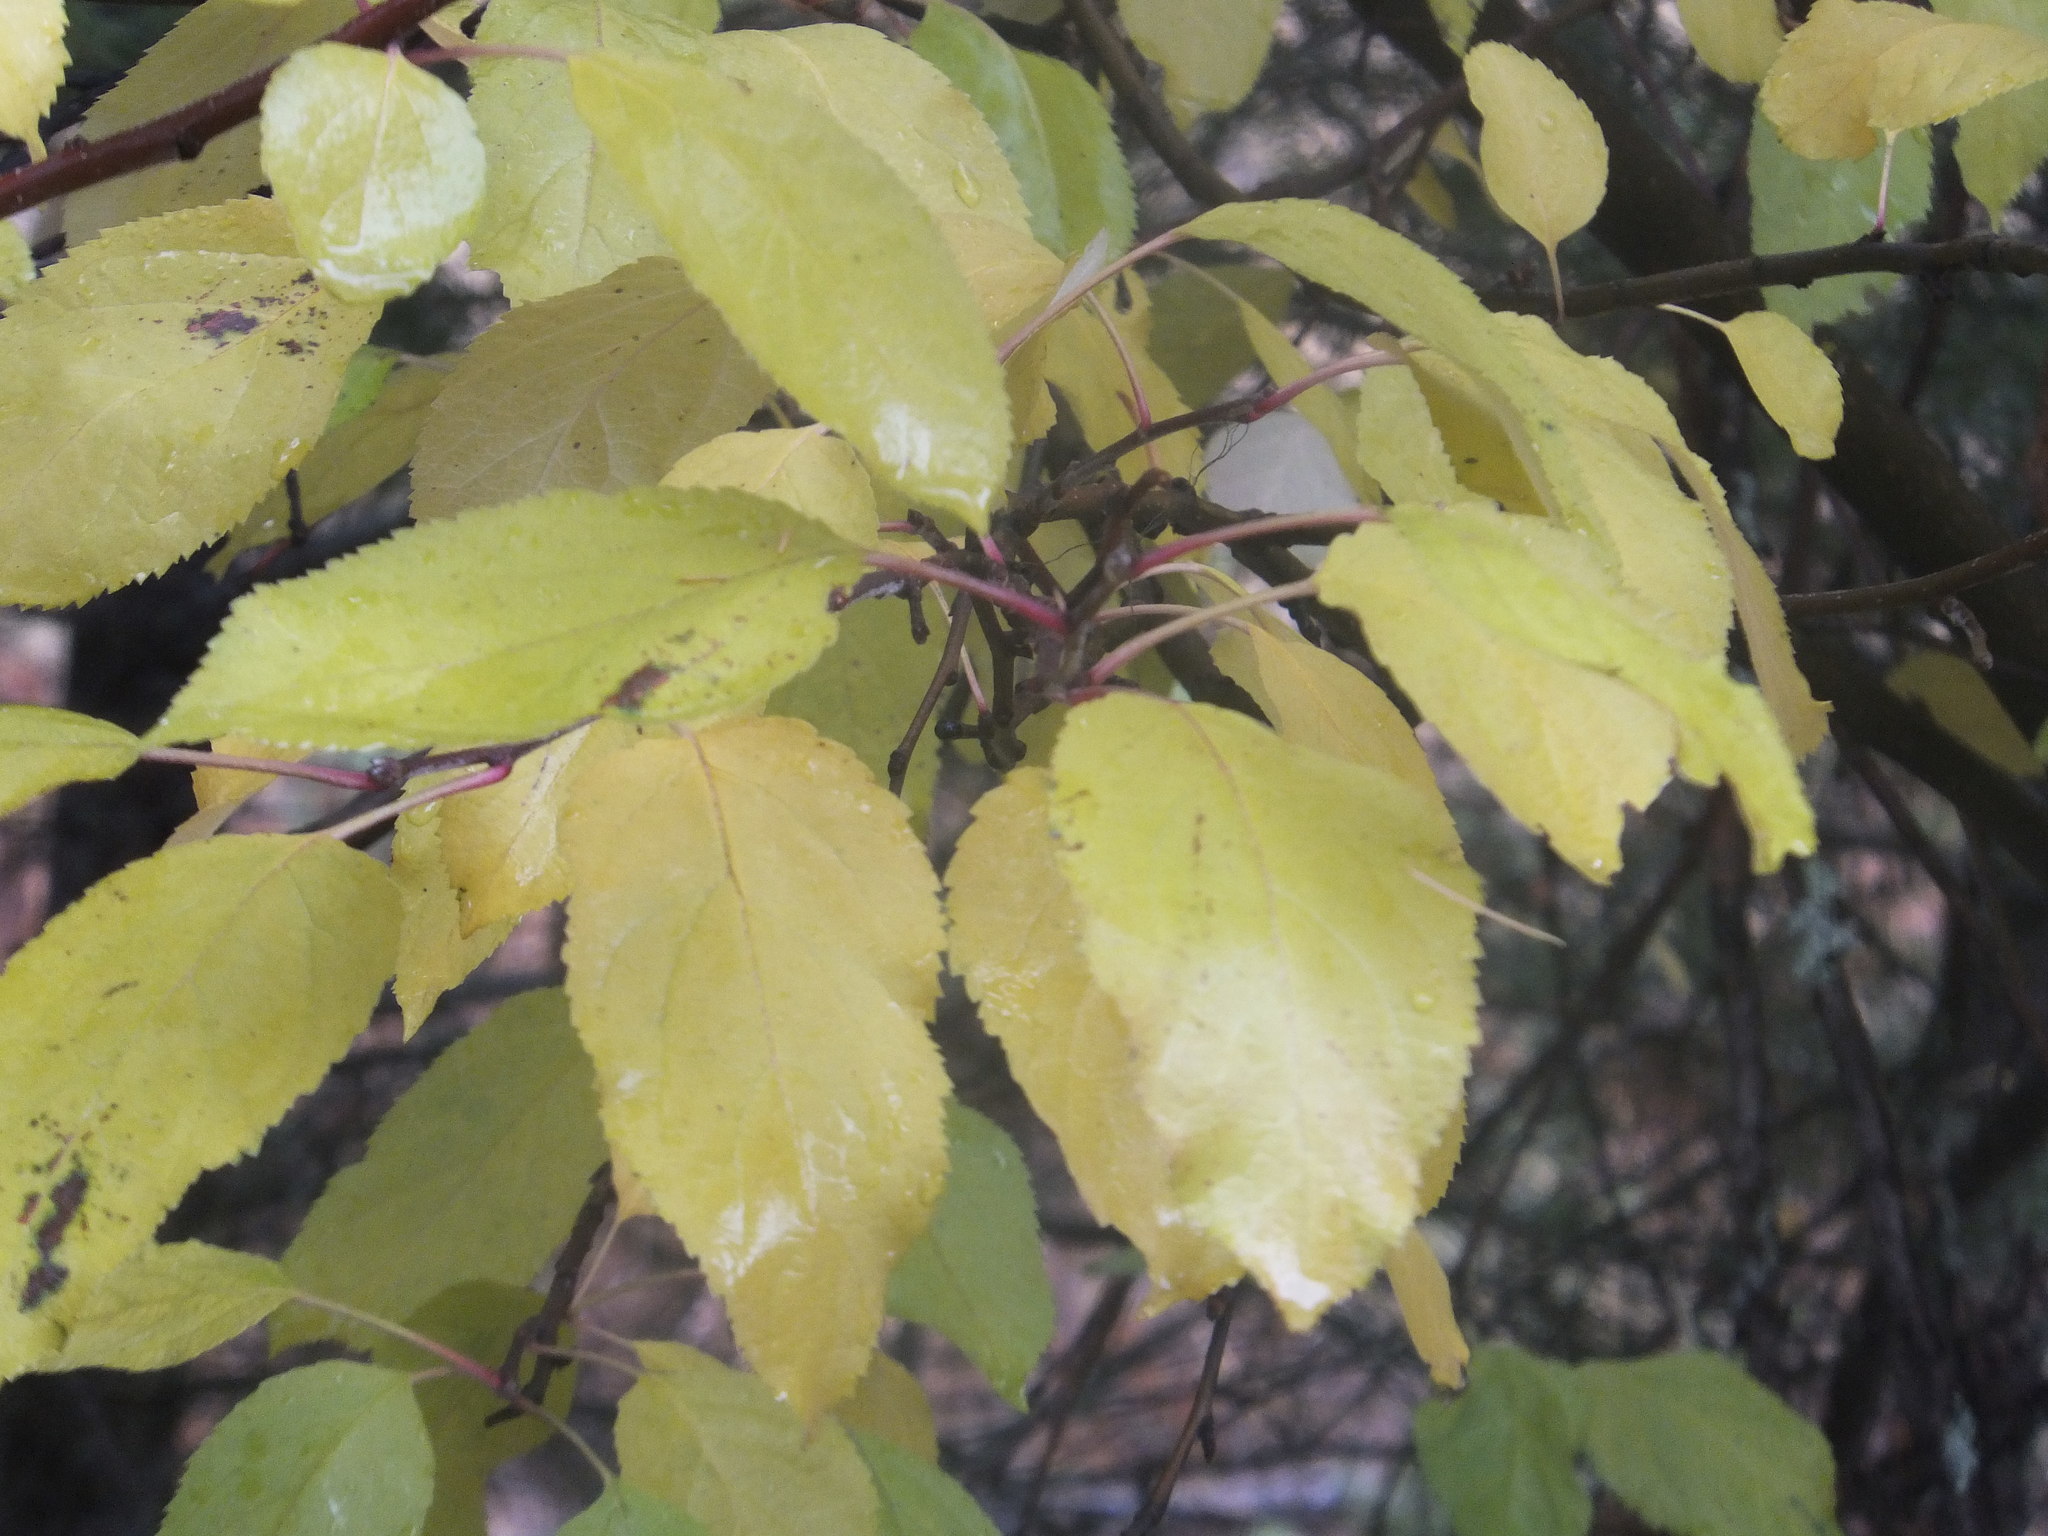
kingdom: Plantae
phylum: Tracheophyta
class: Magnoliopsida
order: Rosales
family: Rosaceae
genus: Prunus
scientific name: Prunus emarginata
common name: Bitter cherry
